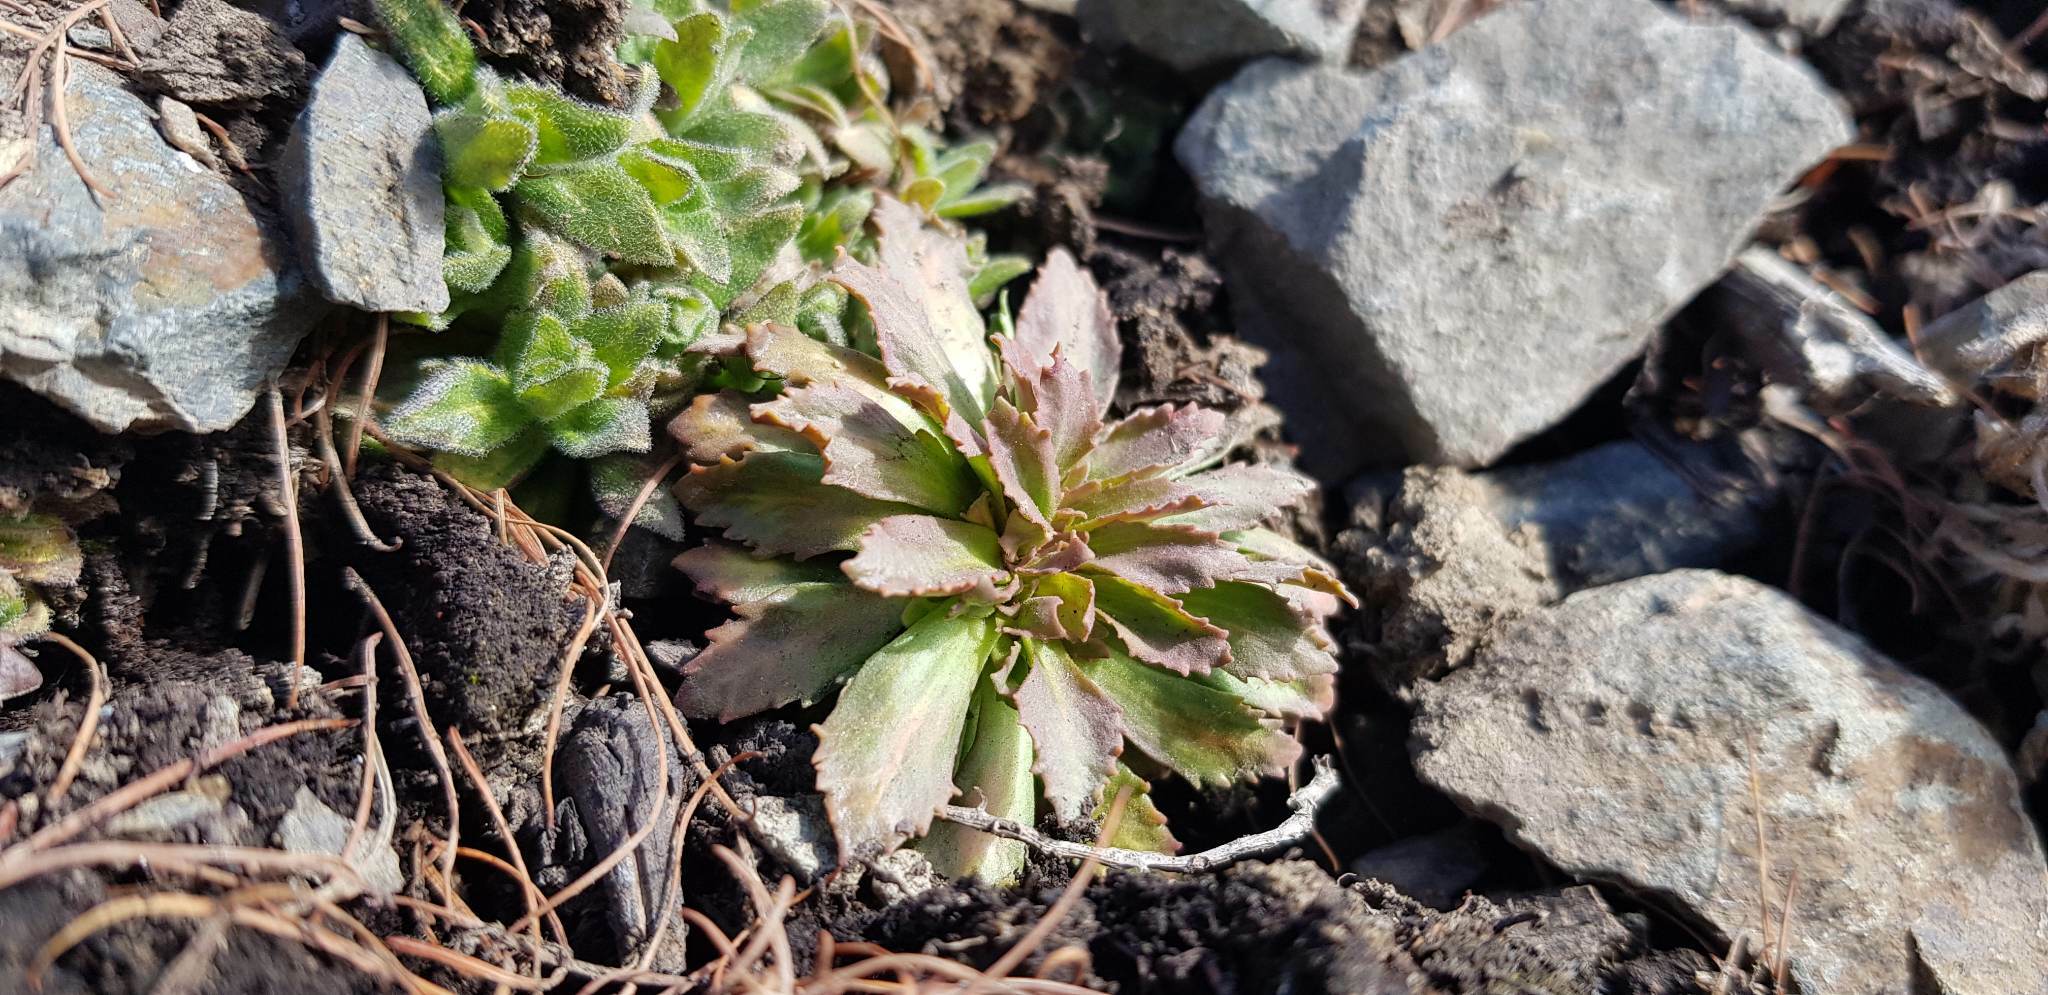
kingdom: Plantae
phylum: Tracheophyta
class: Magnoliopsida
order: Ericales
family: Primulaceae
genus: Androsace
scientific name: Androsace septentrionalis
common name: Hairy northern fairy-candelabra
